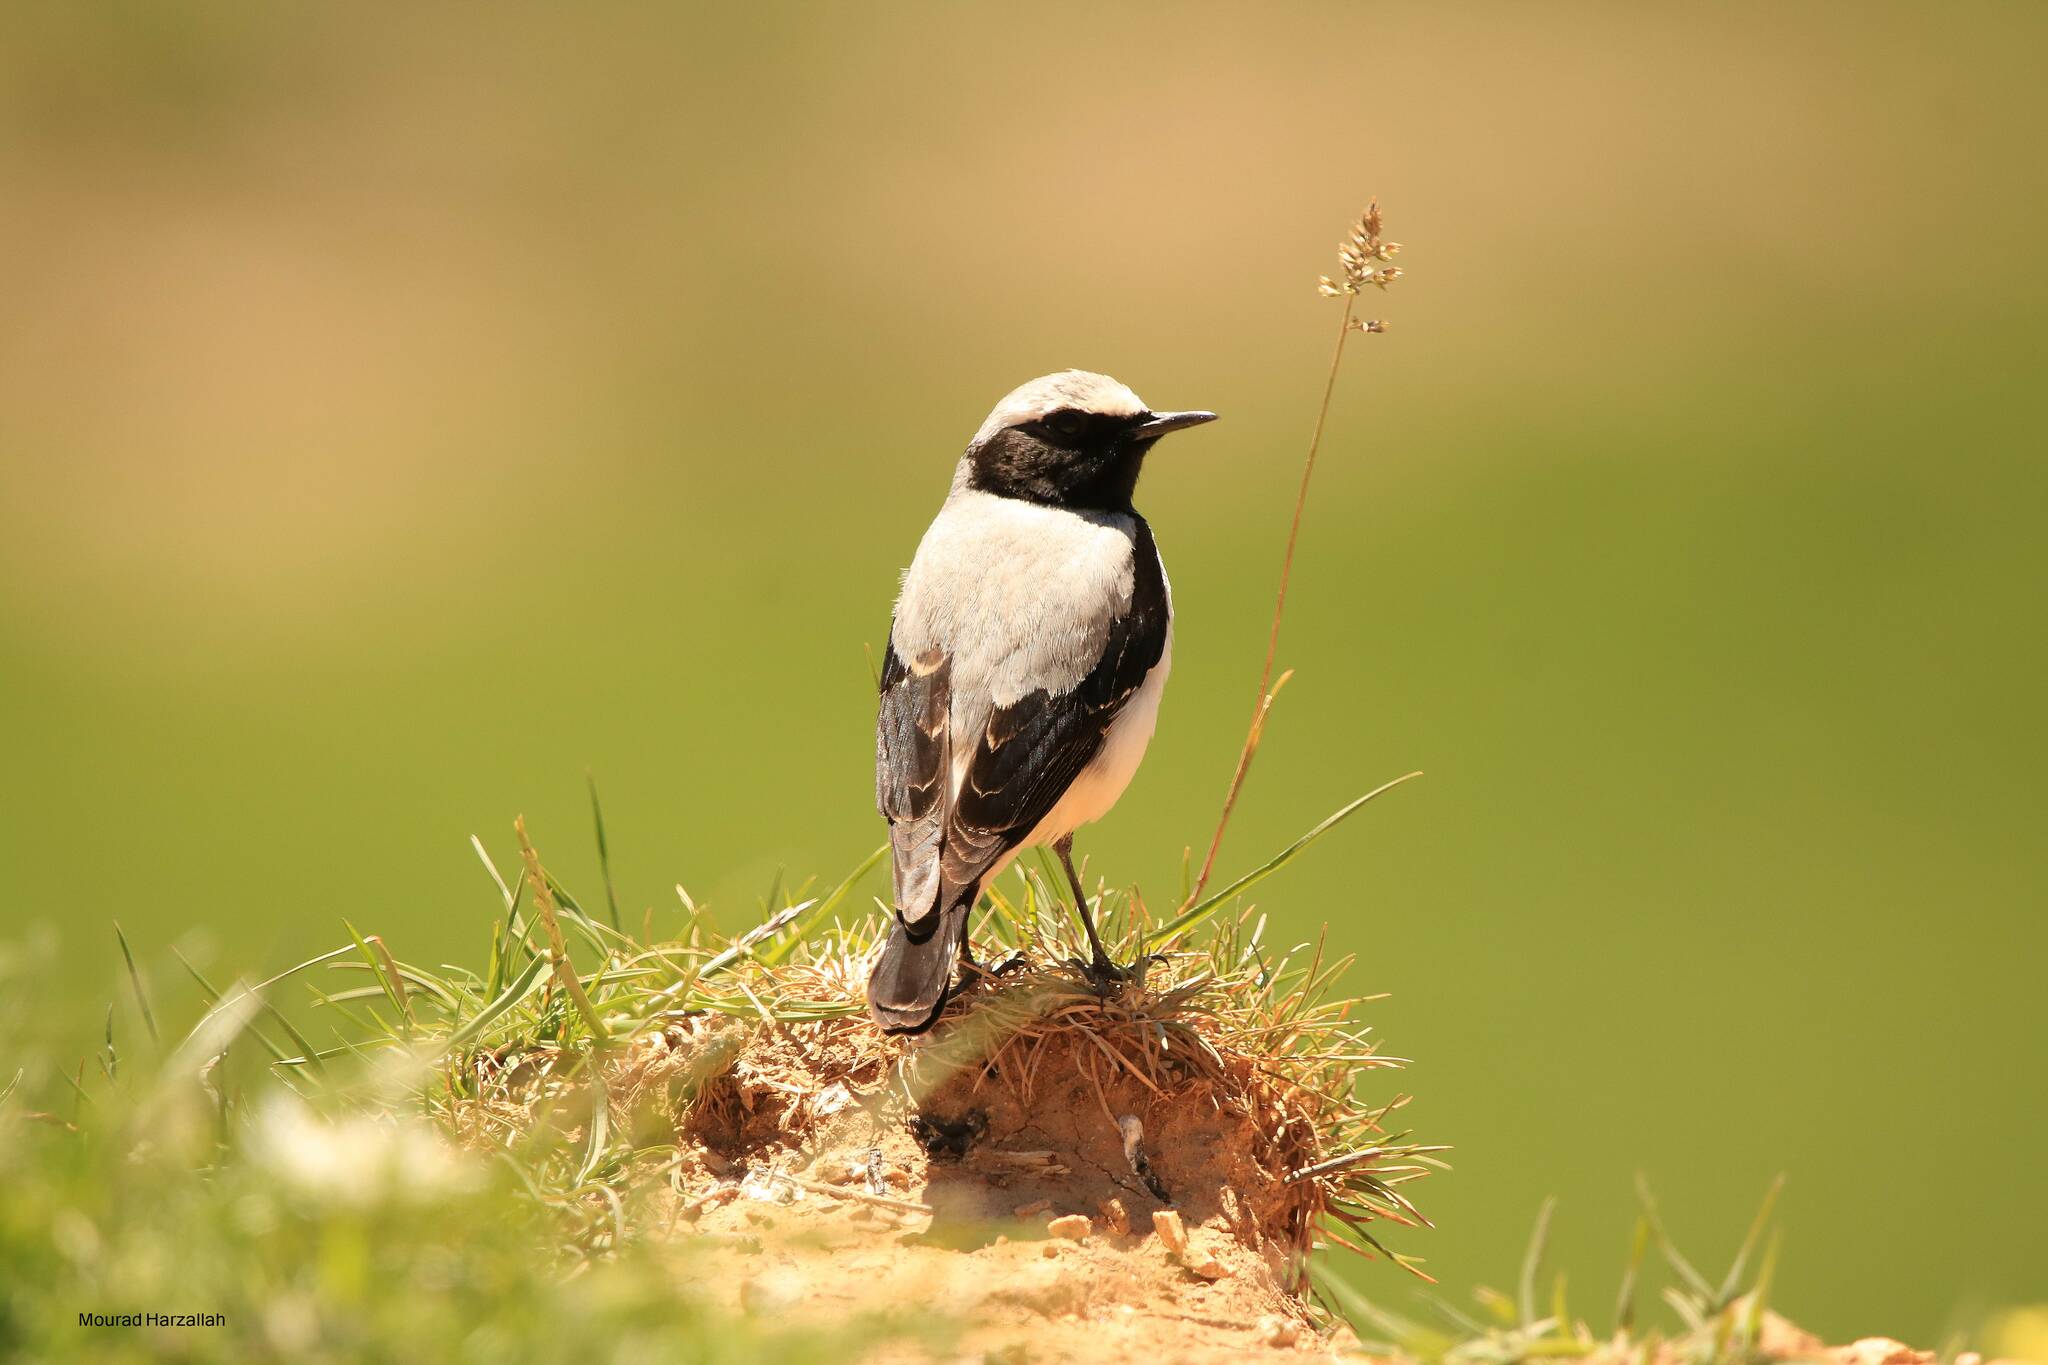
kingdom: Animalia
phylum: Chordata
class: Aves
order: Passeriformes
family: Muscicapidae
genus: Oenanthe
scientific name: Oenanthe oenanthe
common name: Northern wheatear
